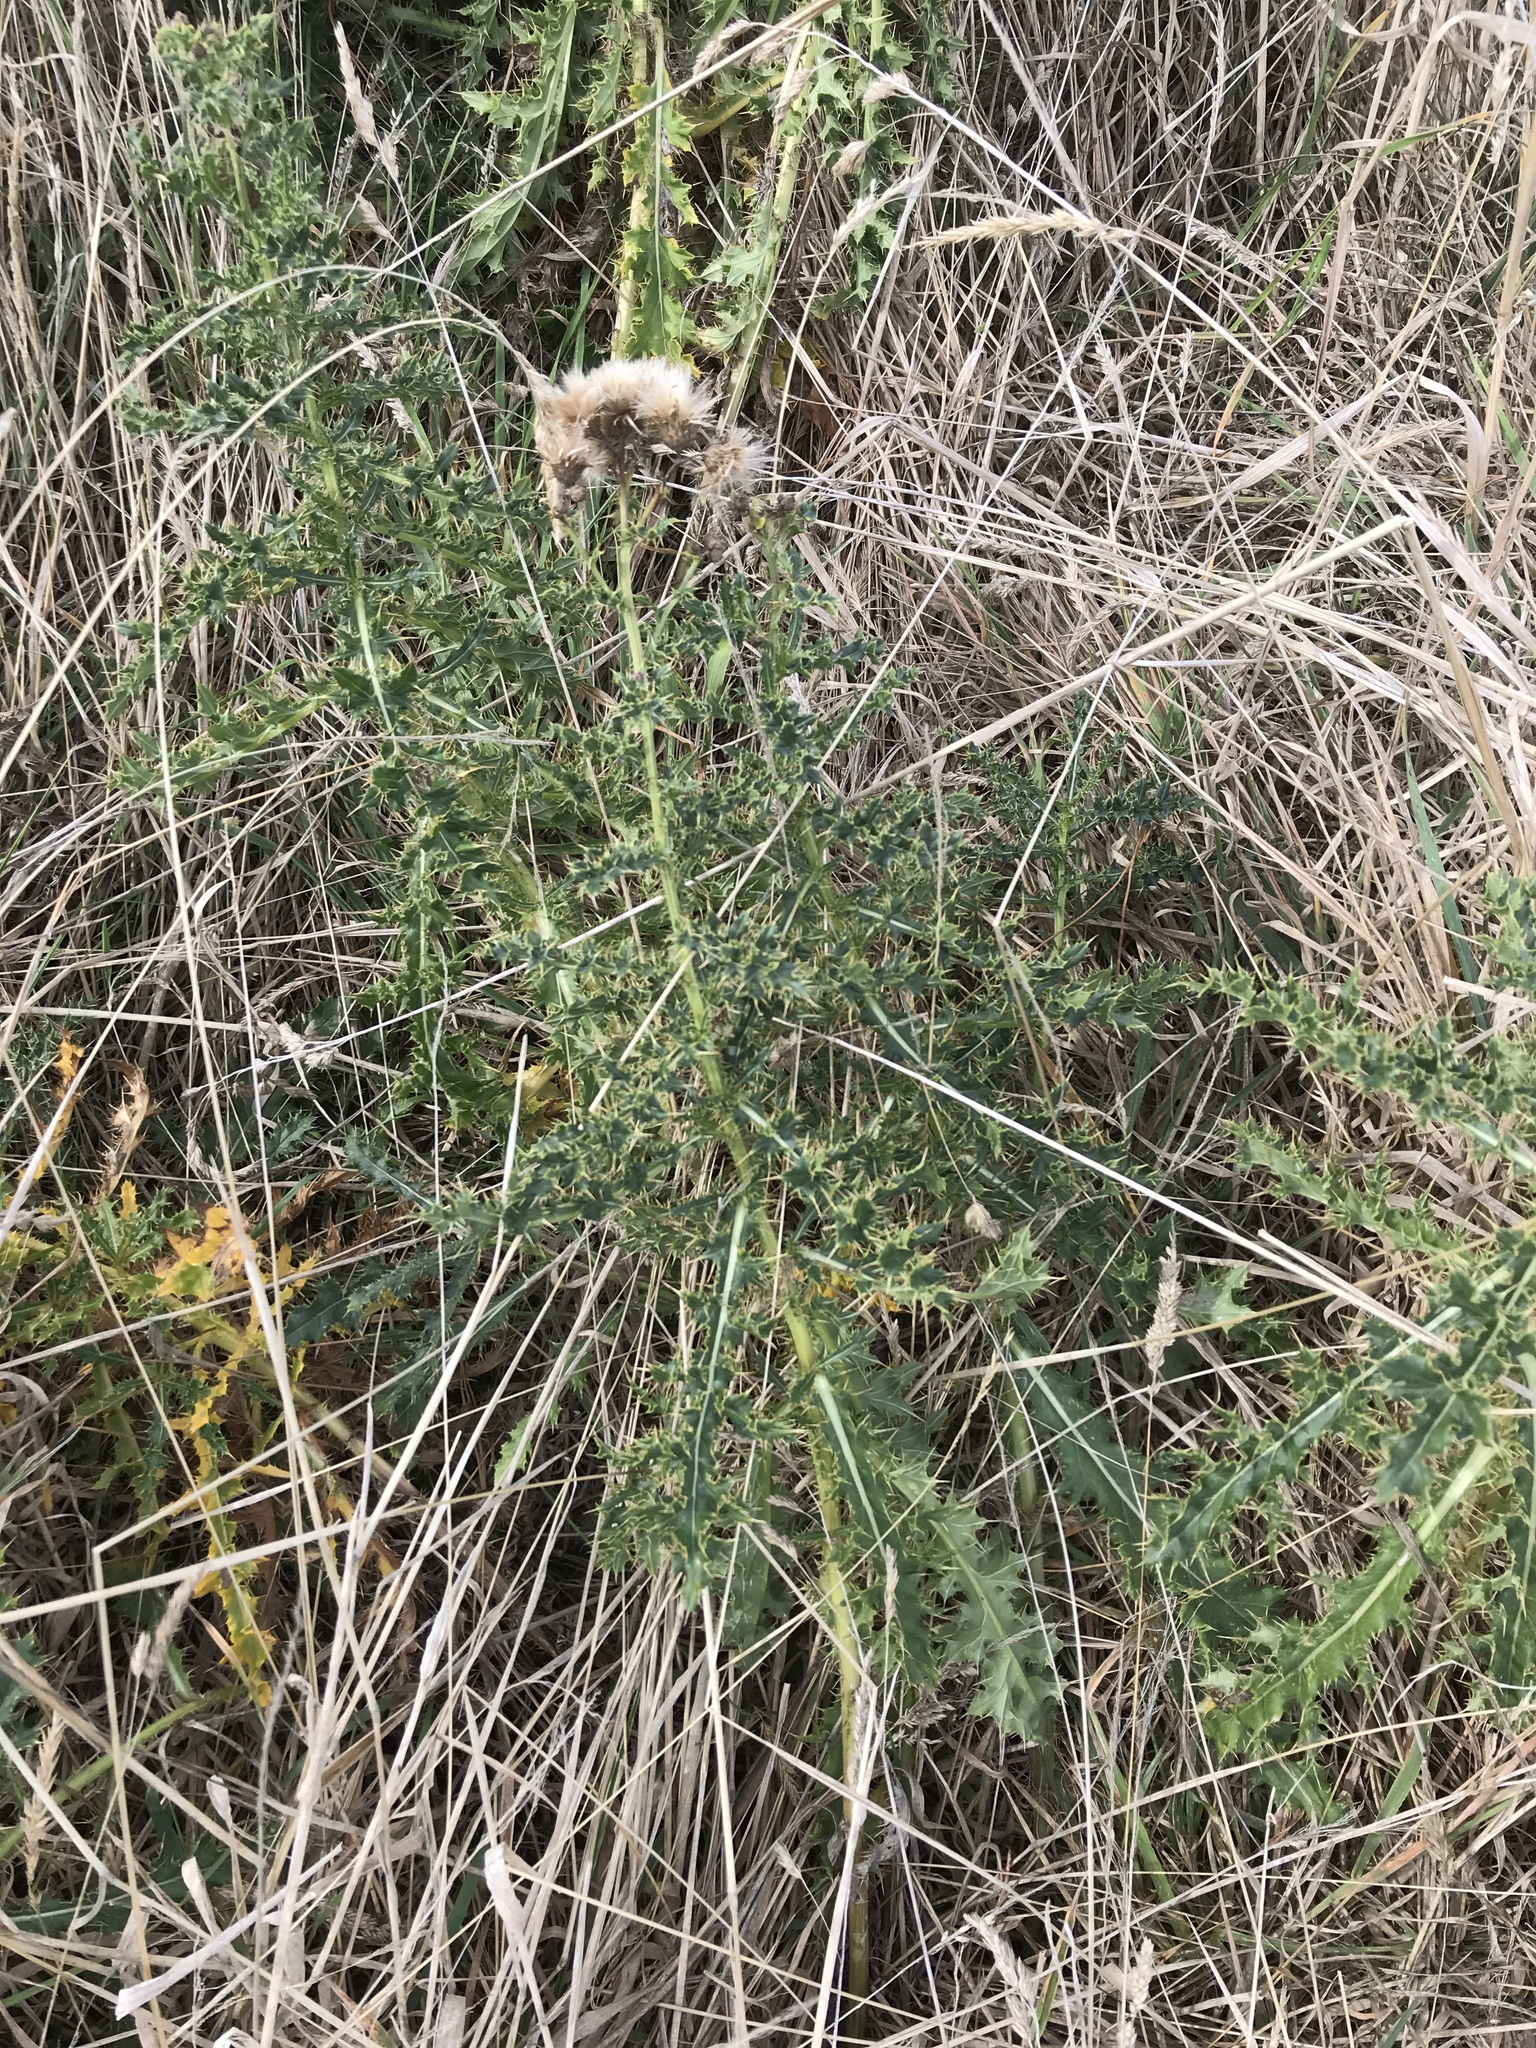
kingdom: Plantae
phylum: Tracheophyta
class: Magnoliopsida
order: Asterales
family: Asteraceae
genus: Cirsium
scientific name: Cirsium arvense
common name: Creeping thistle
